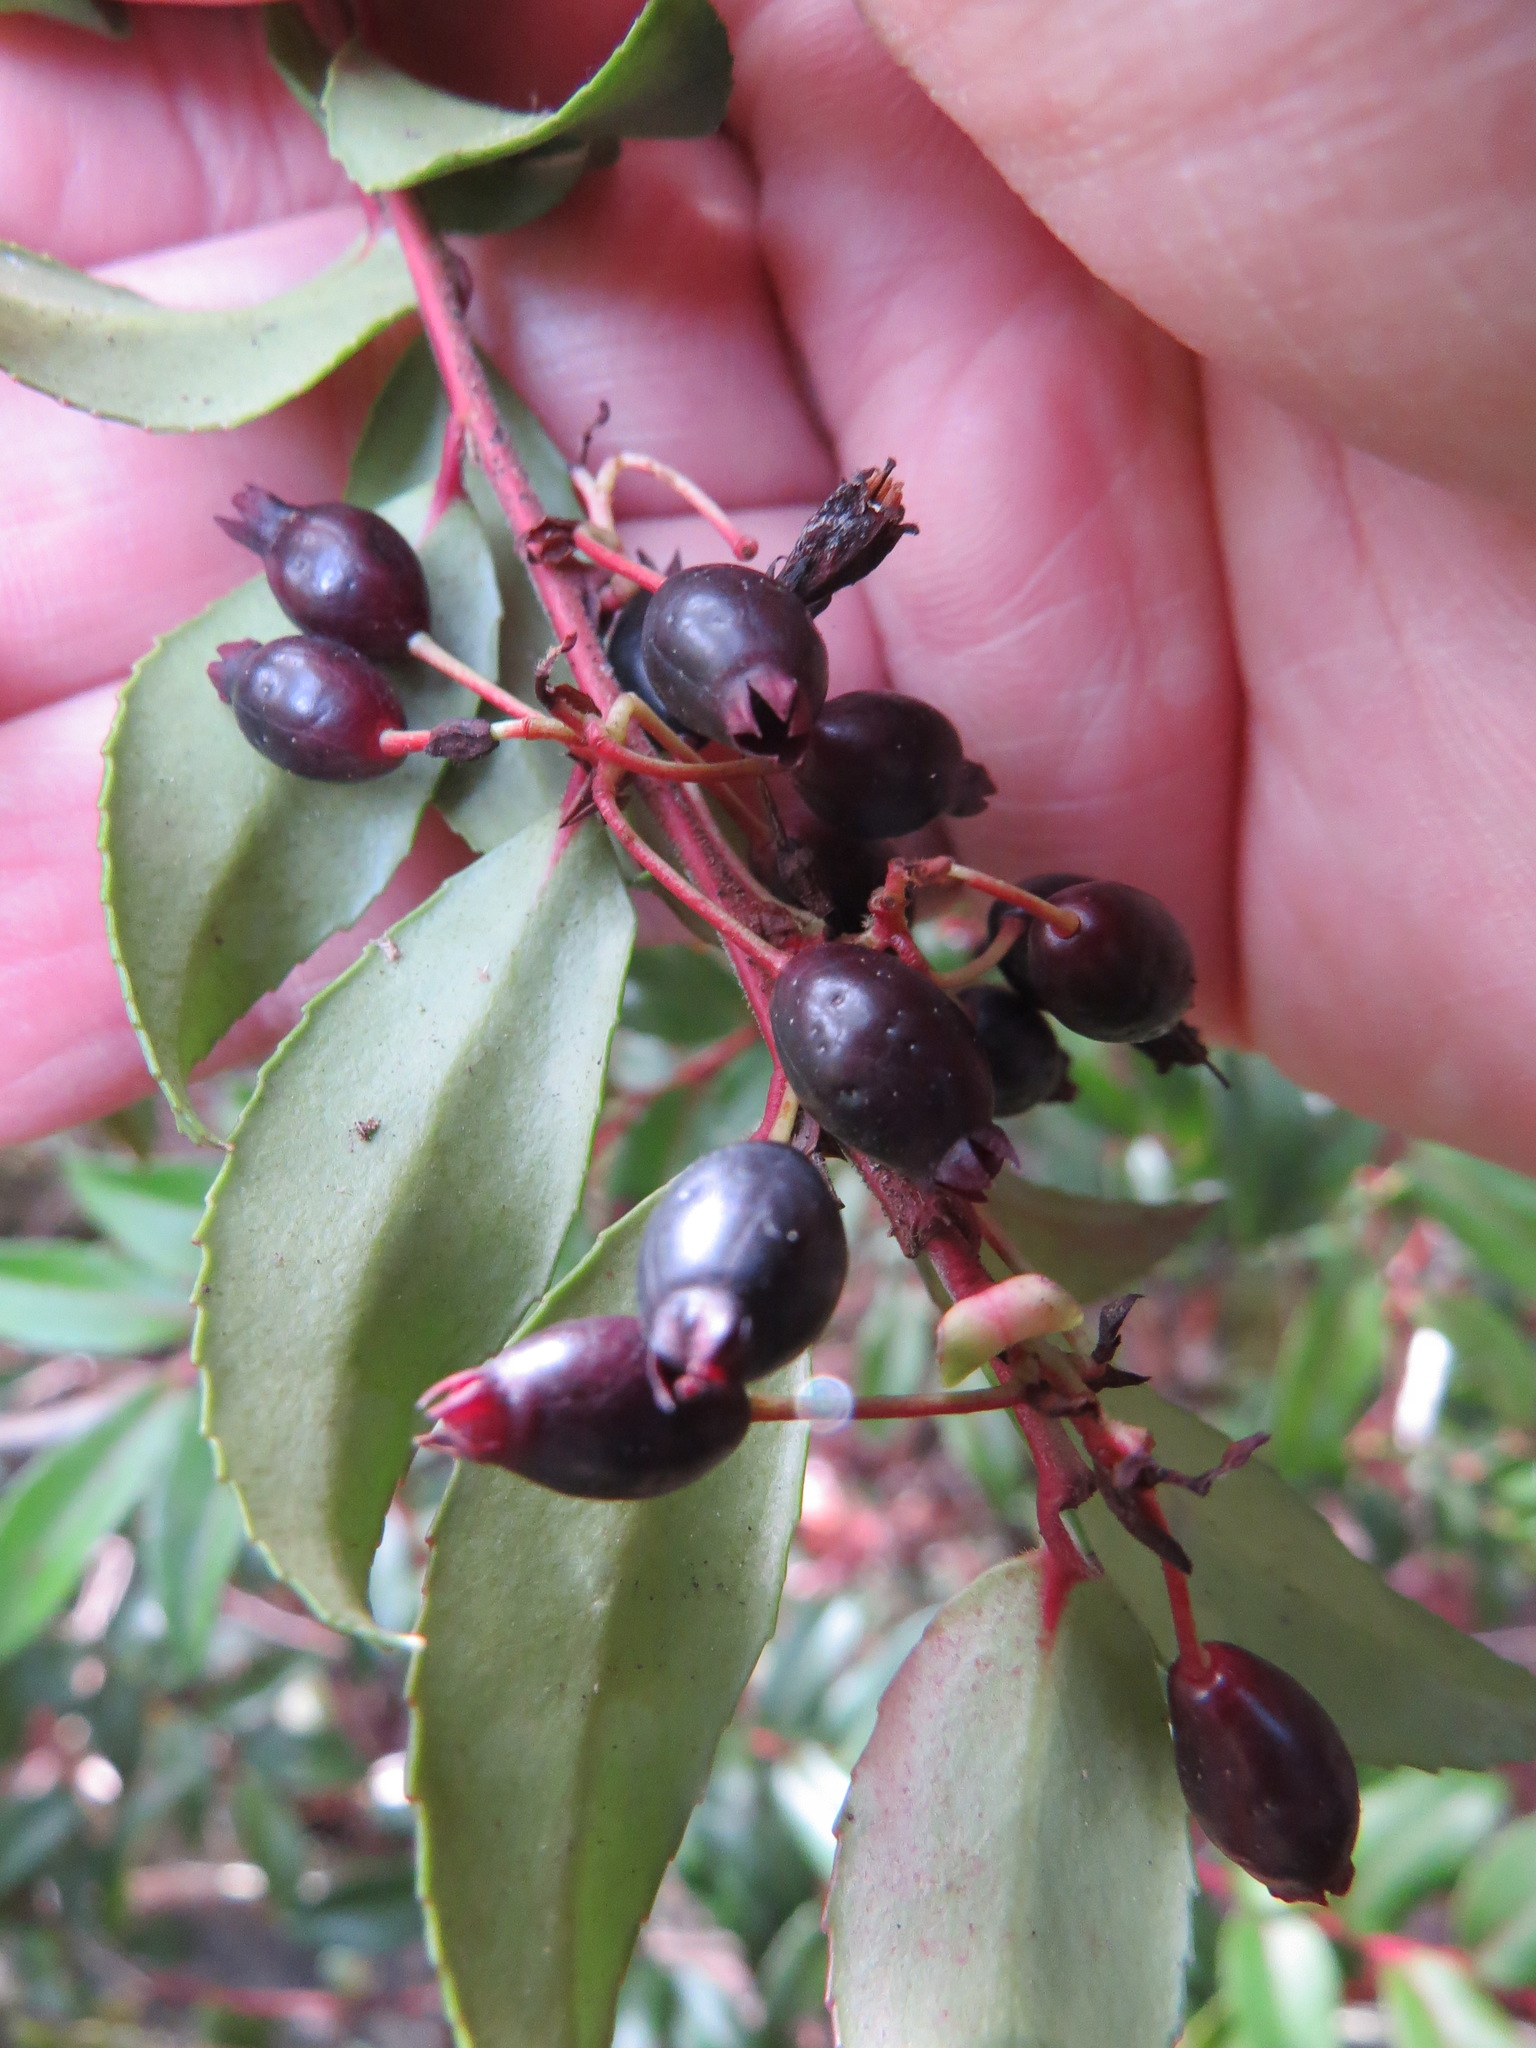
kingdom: Plantae
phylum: Tracheophyta
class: Magnoliopsida
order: Ericales
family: Ericaceae
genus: Vaccinium
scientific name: Vaccinium ovatum
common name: California-huckleberry
